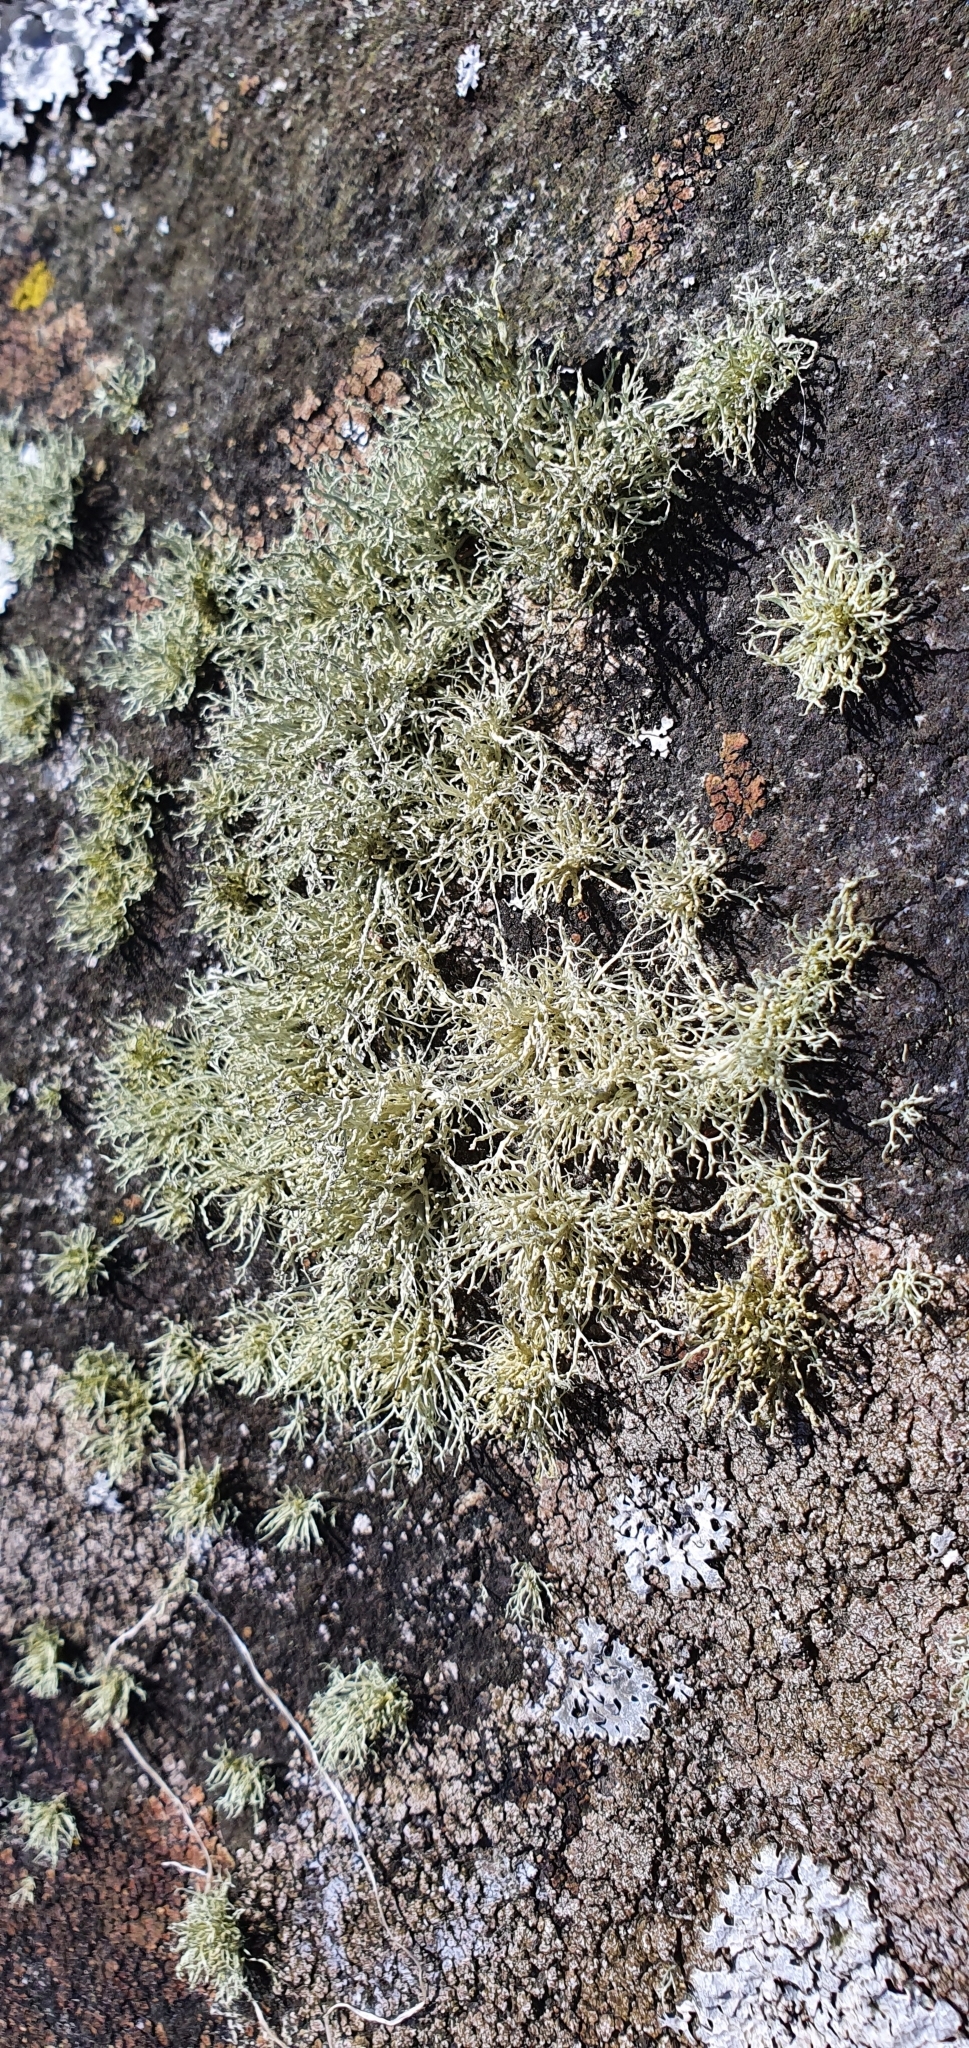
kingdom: Fungi
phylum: Ascomycota
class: Lecanoromycetes
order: Lecanorales
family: Ramalinaceae
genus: Ramalina
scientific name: Ramalina subfarinacea
